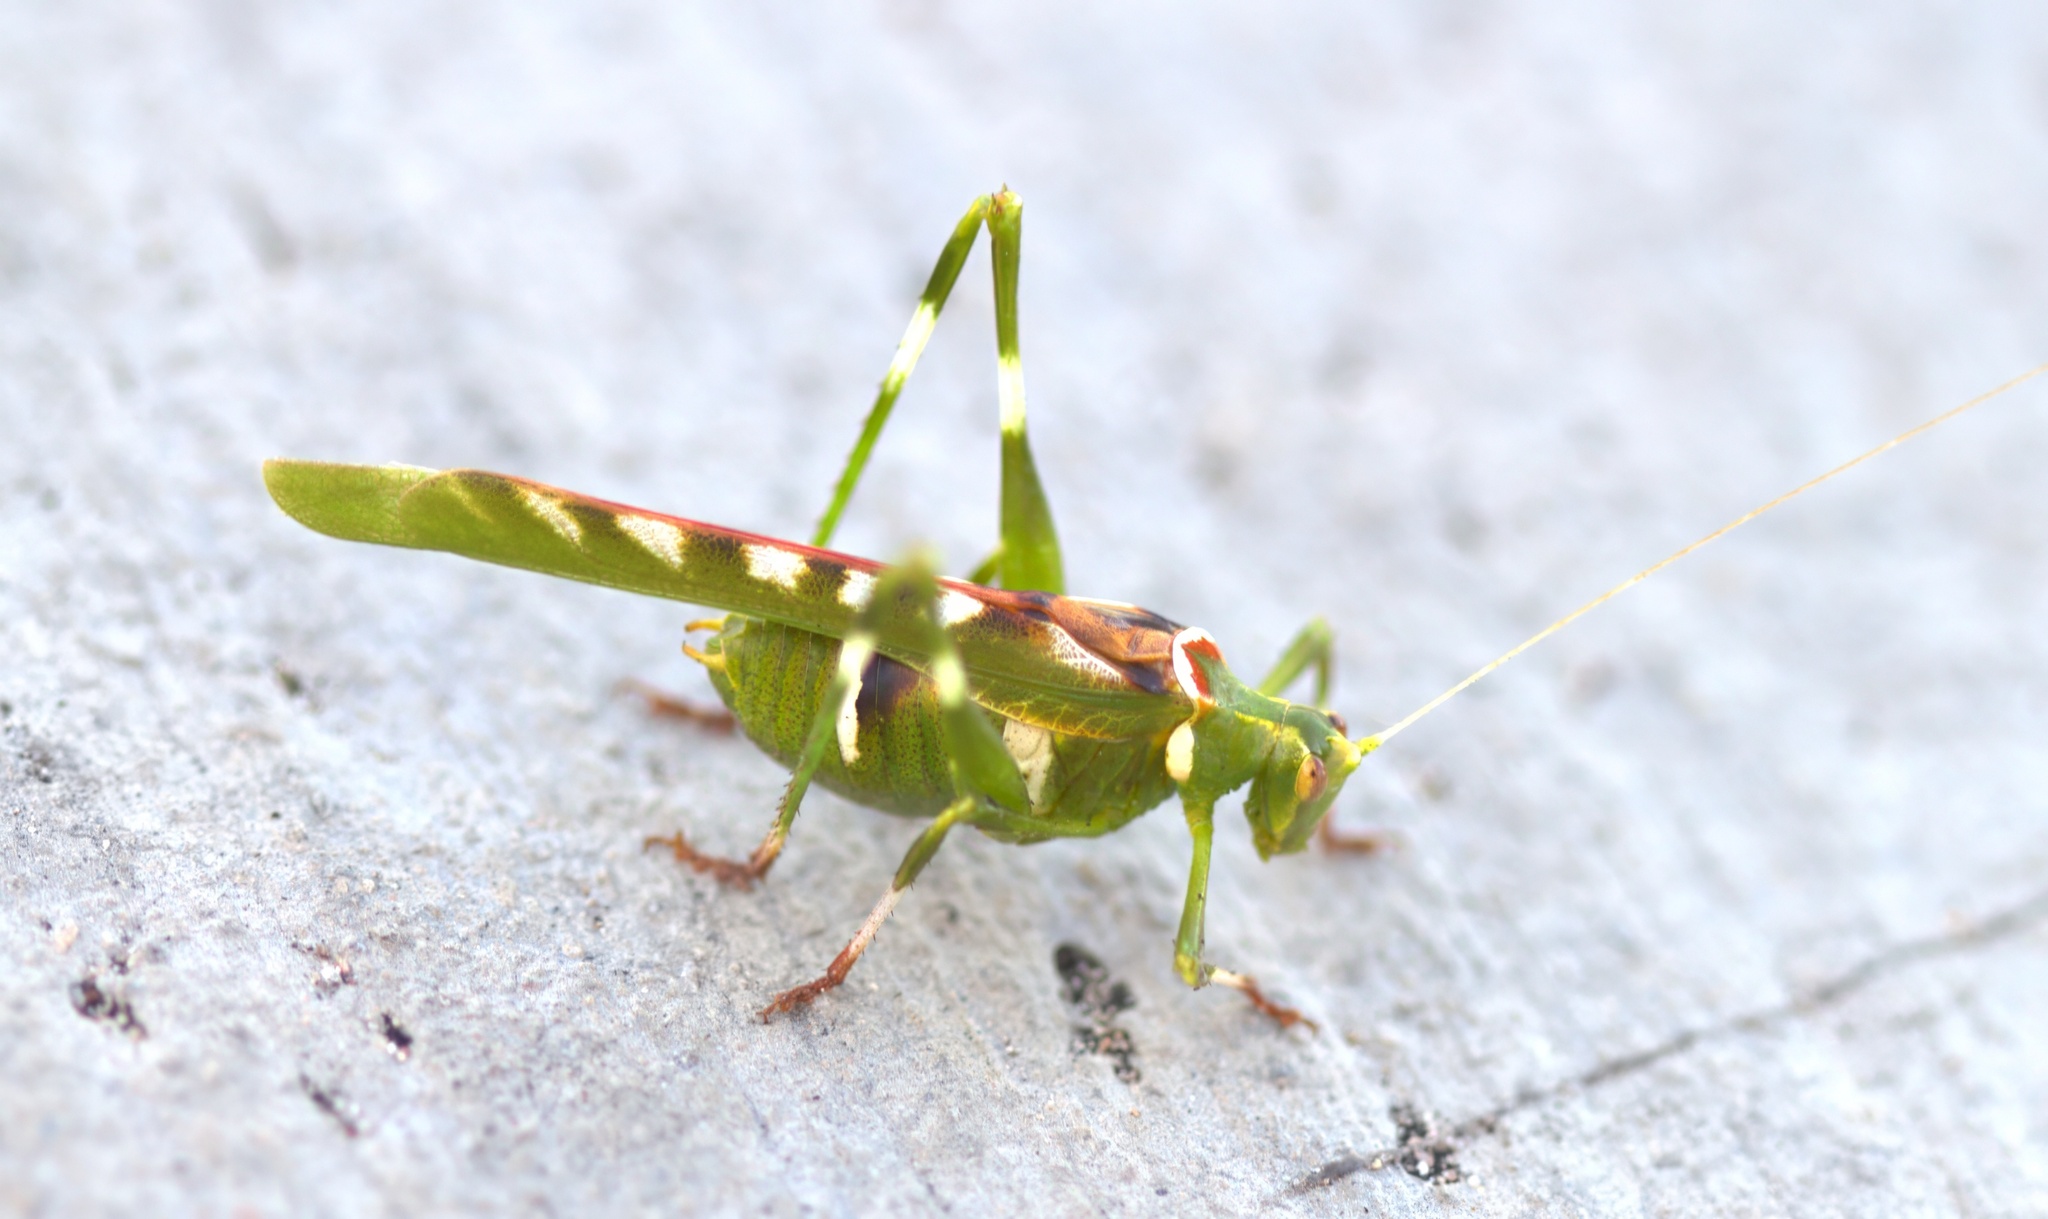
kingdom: Animalia
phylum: Arthropoda
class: Insecta
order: Orthoptera
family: Tettigoniidae
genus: Insara
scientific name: Insara covilleae
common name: Creosote bush katydid
